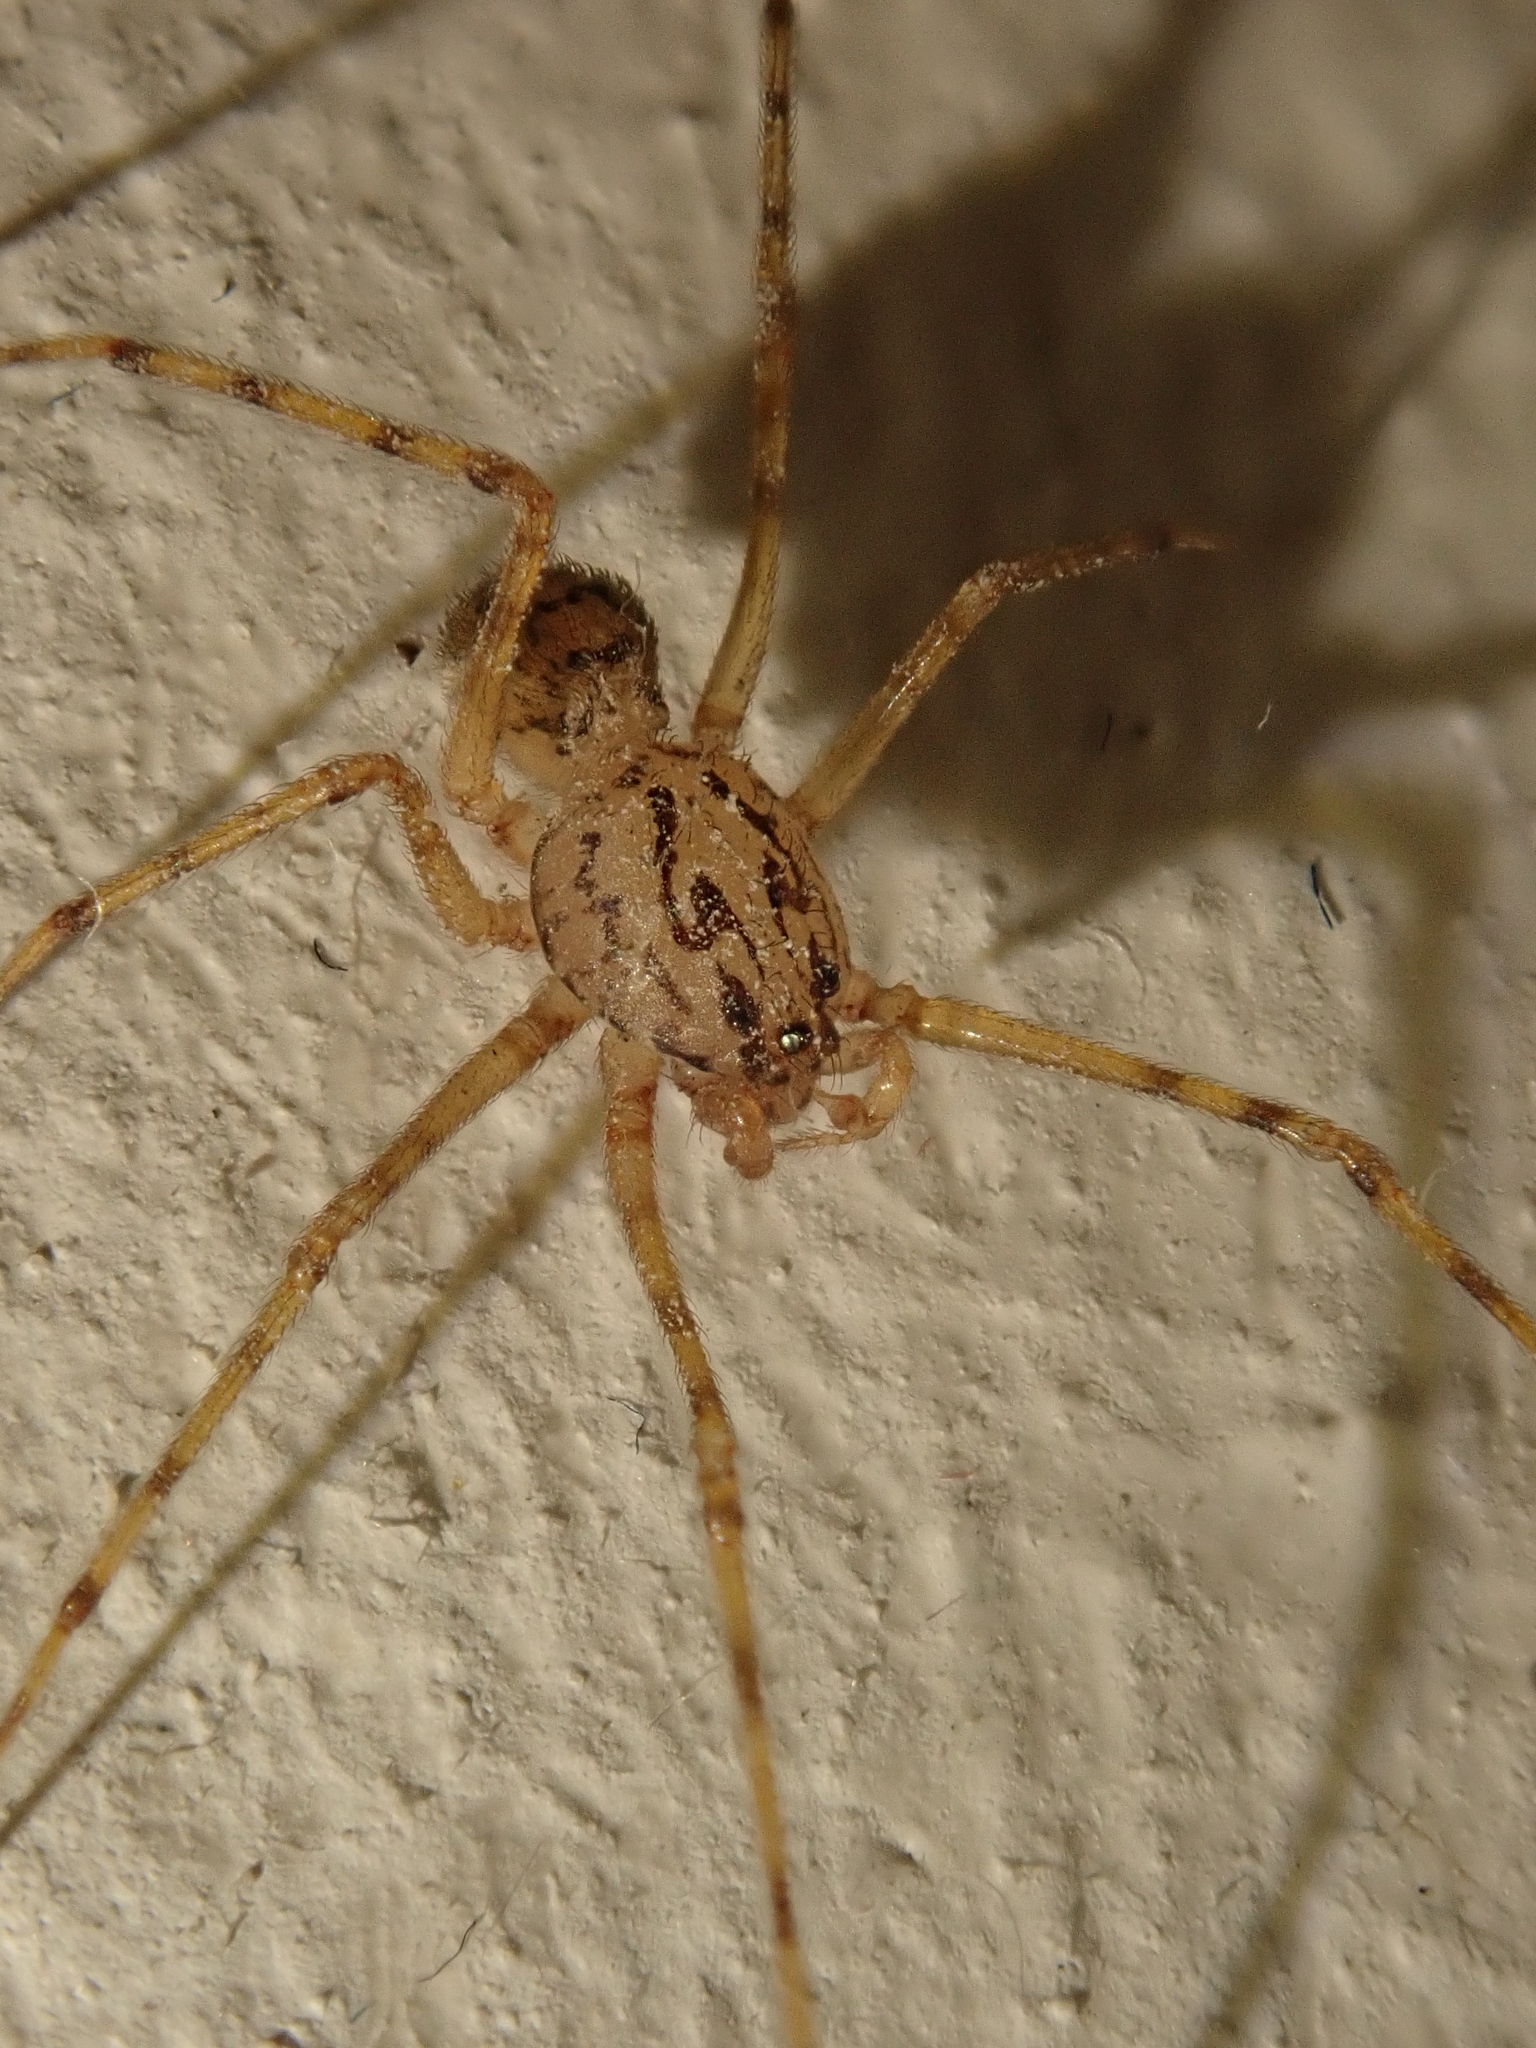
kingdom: Animalia
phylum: Arthropoda
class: Arachnida
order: Araneae
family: Scytodidae
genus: Scytodes
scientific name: Scytodes thoracica
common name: Spitting spider
